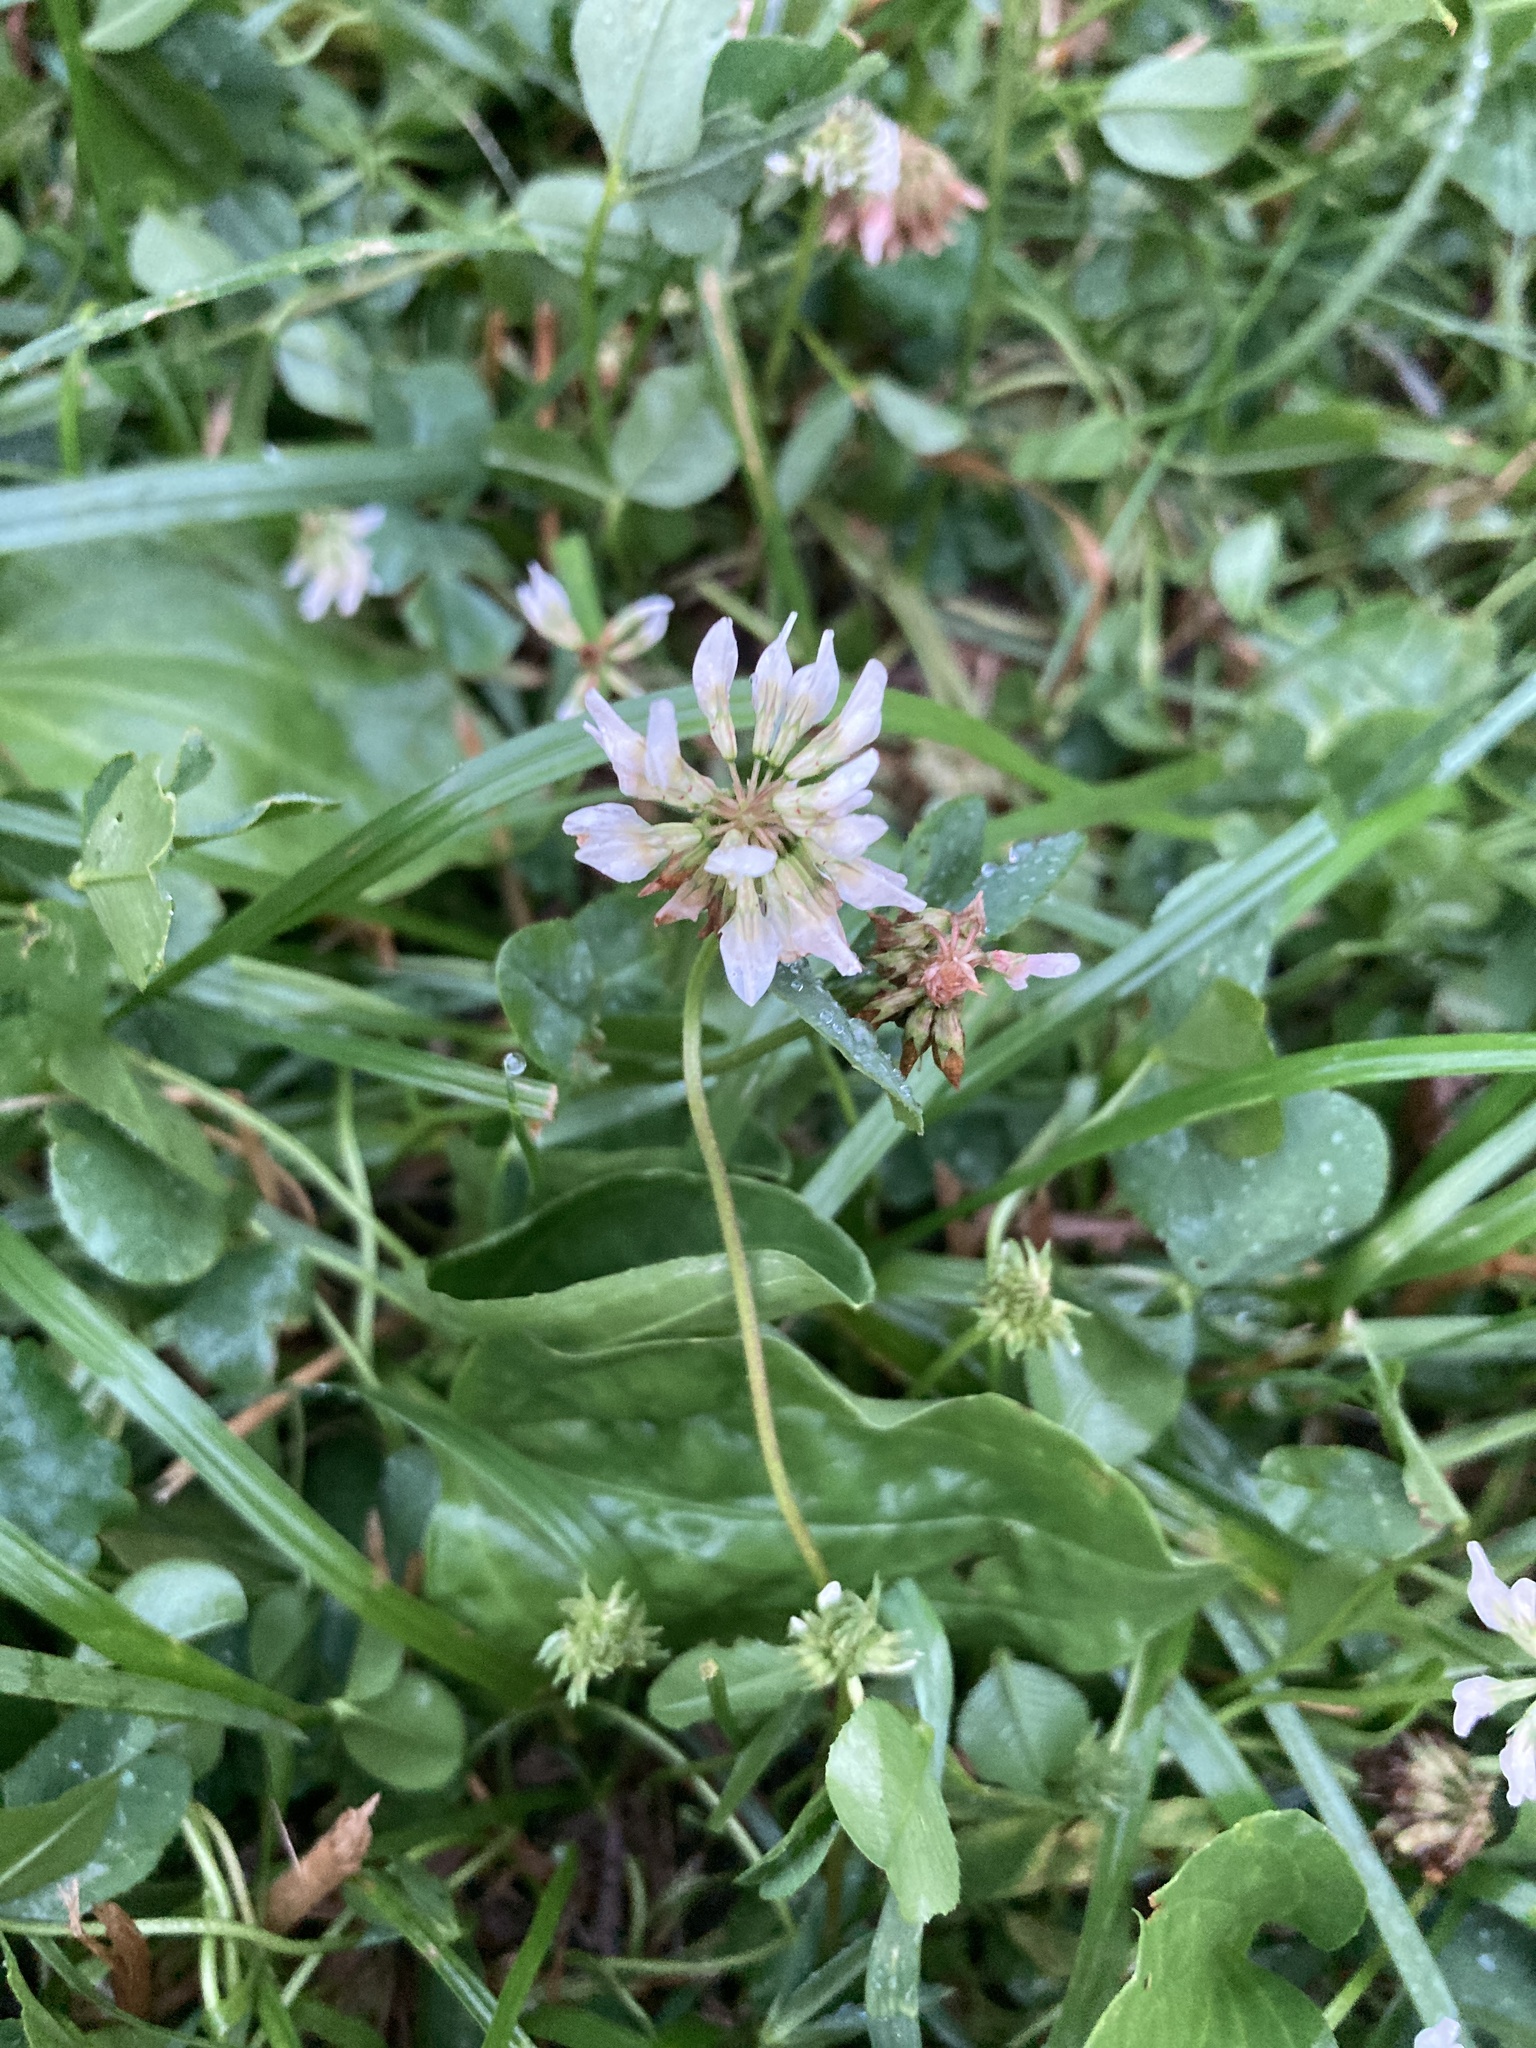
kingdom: Plantae
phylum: Tracheophyta
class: Magnoliopsida
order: Fabales
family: Fabaceae
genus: Trifolium
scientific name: Trifolium repens
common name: White clover
